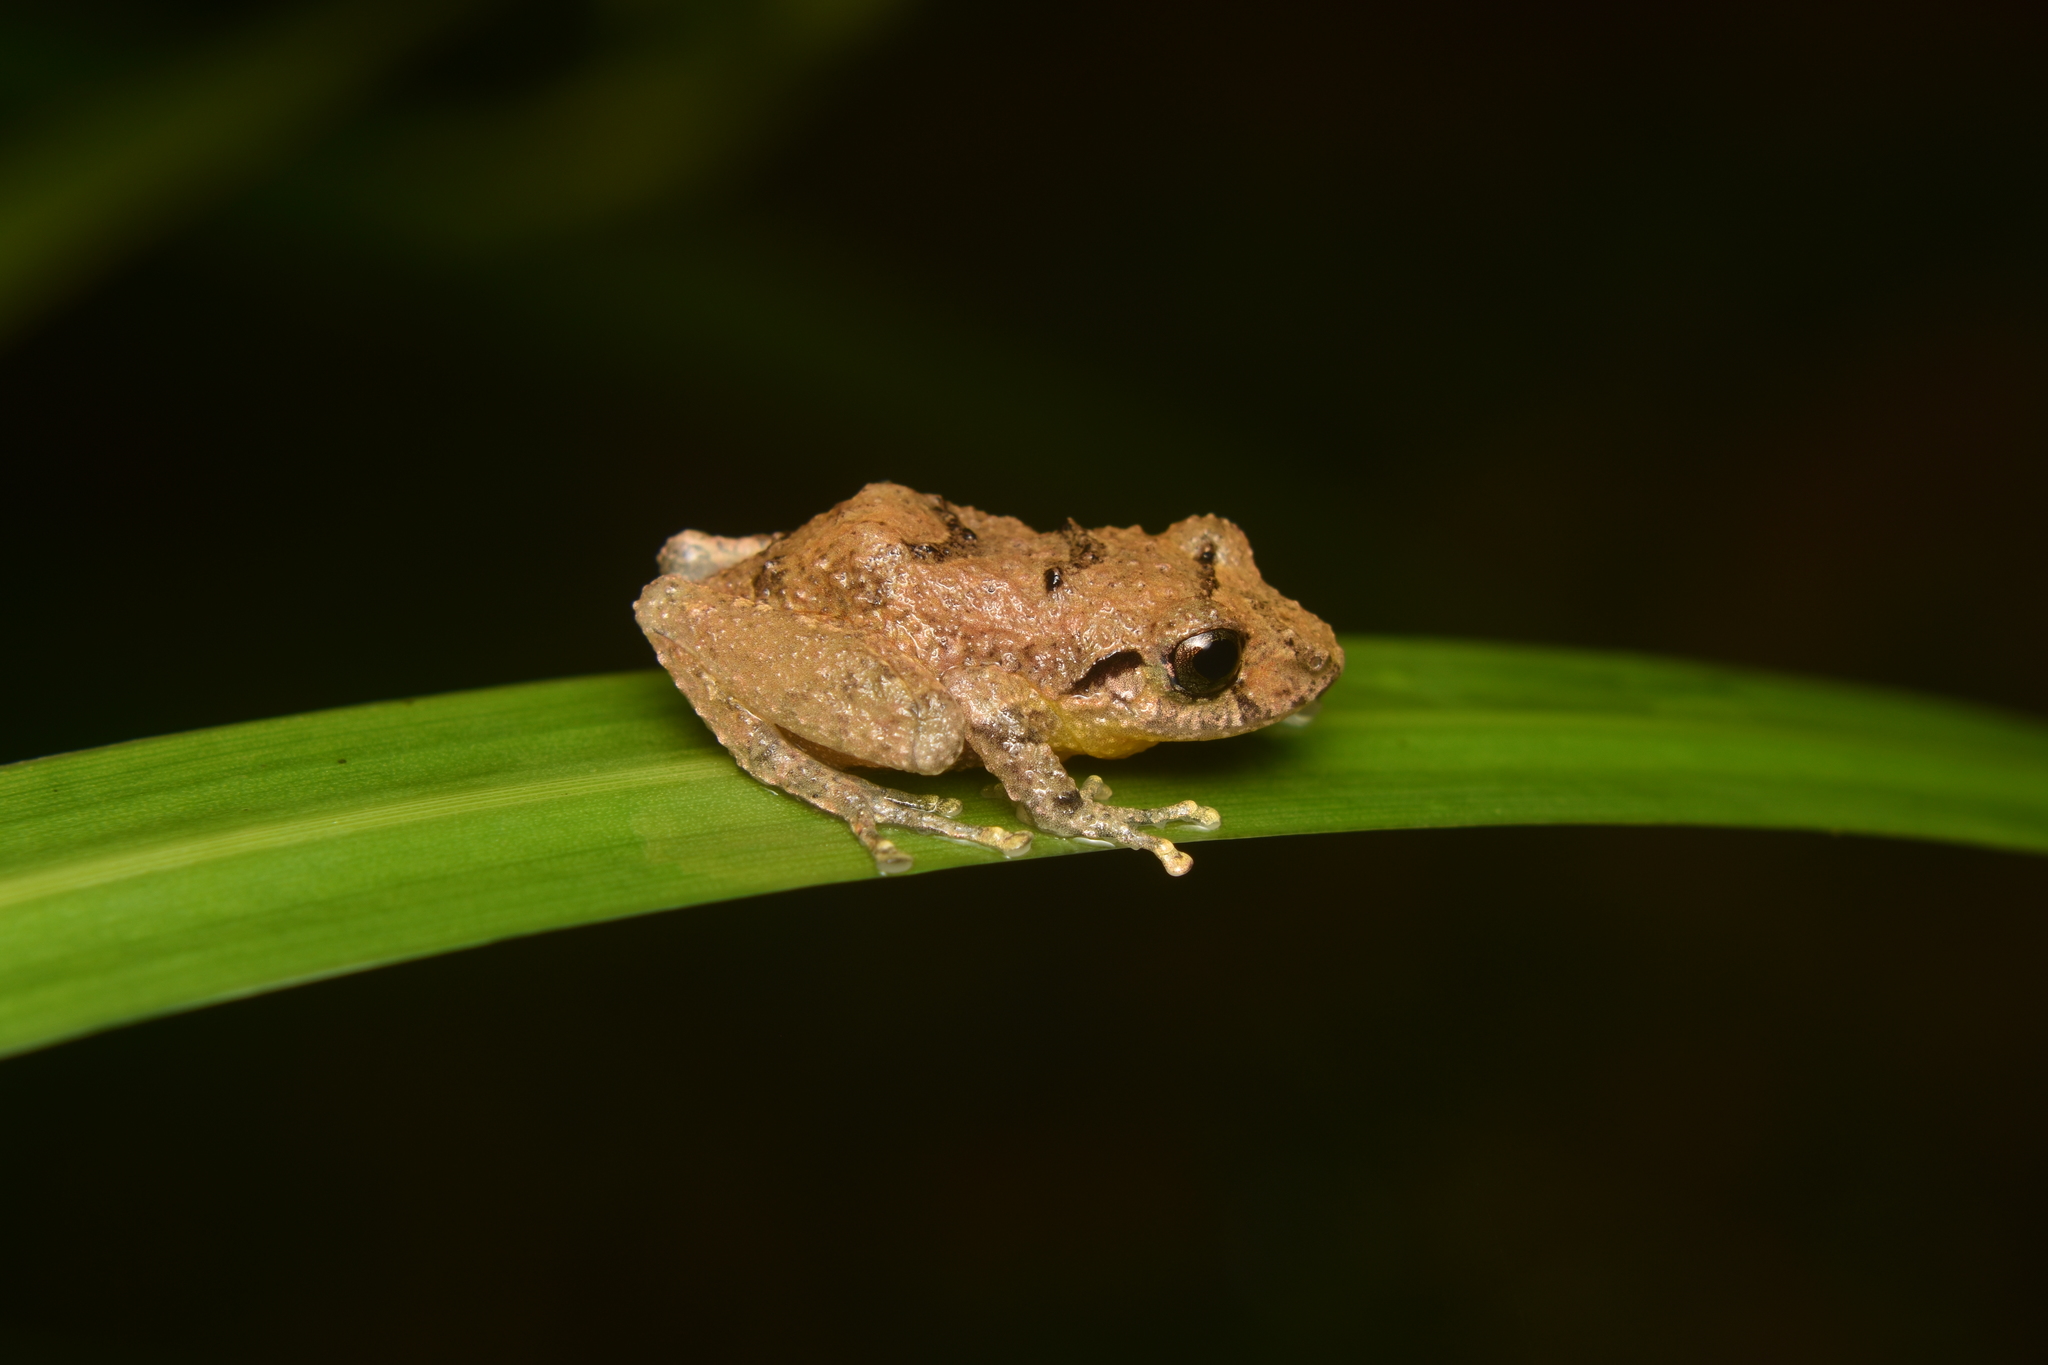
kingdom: Animalia
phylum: Chordata
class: Amphibia
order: Anura
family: Craugastoridae
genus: Pristimantis
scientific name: Pristimantis paisa
